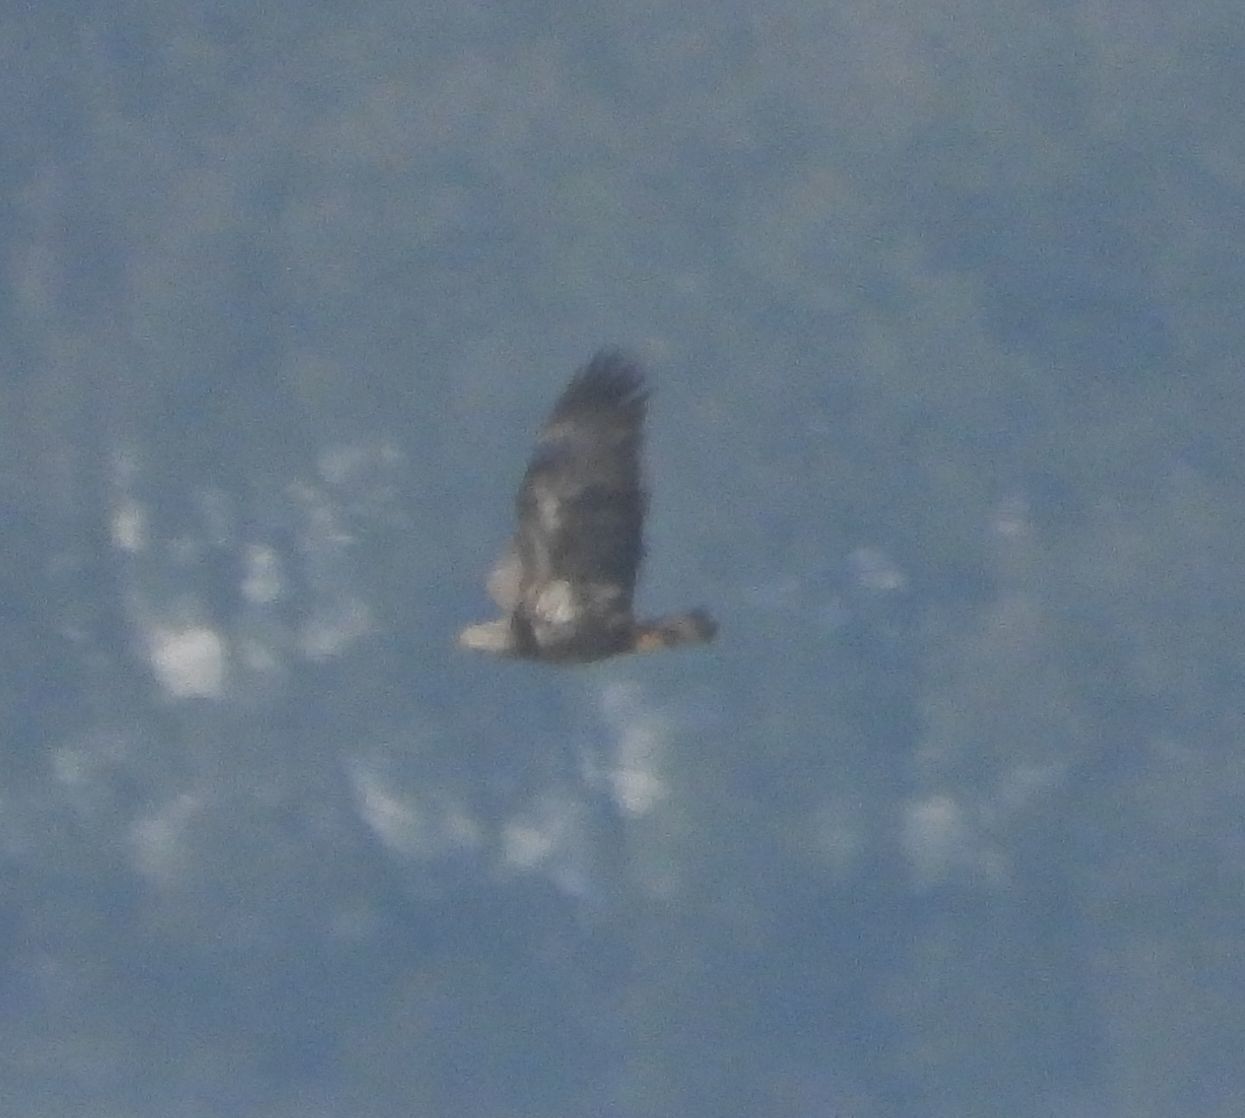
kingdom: Animalia
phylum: Chordata
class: Aves
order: Accipitriformes
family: Accipitridae
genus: Haliaeetus
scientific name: Haliaeetus leucocephalus
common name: Bald eagle
